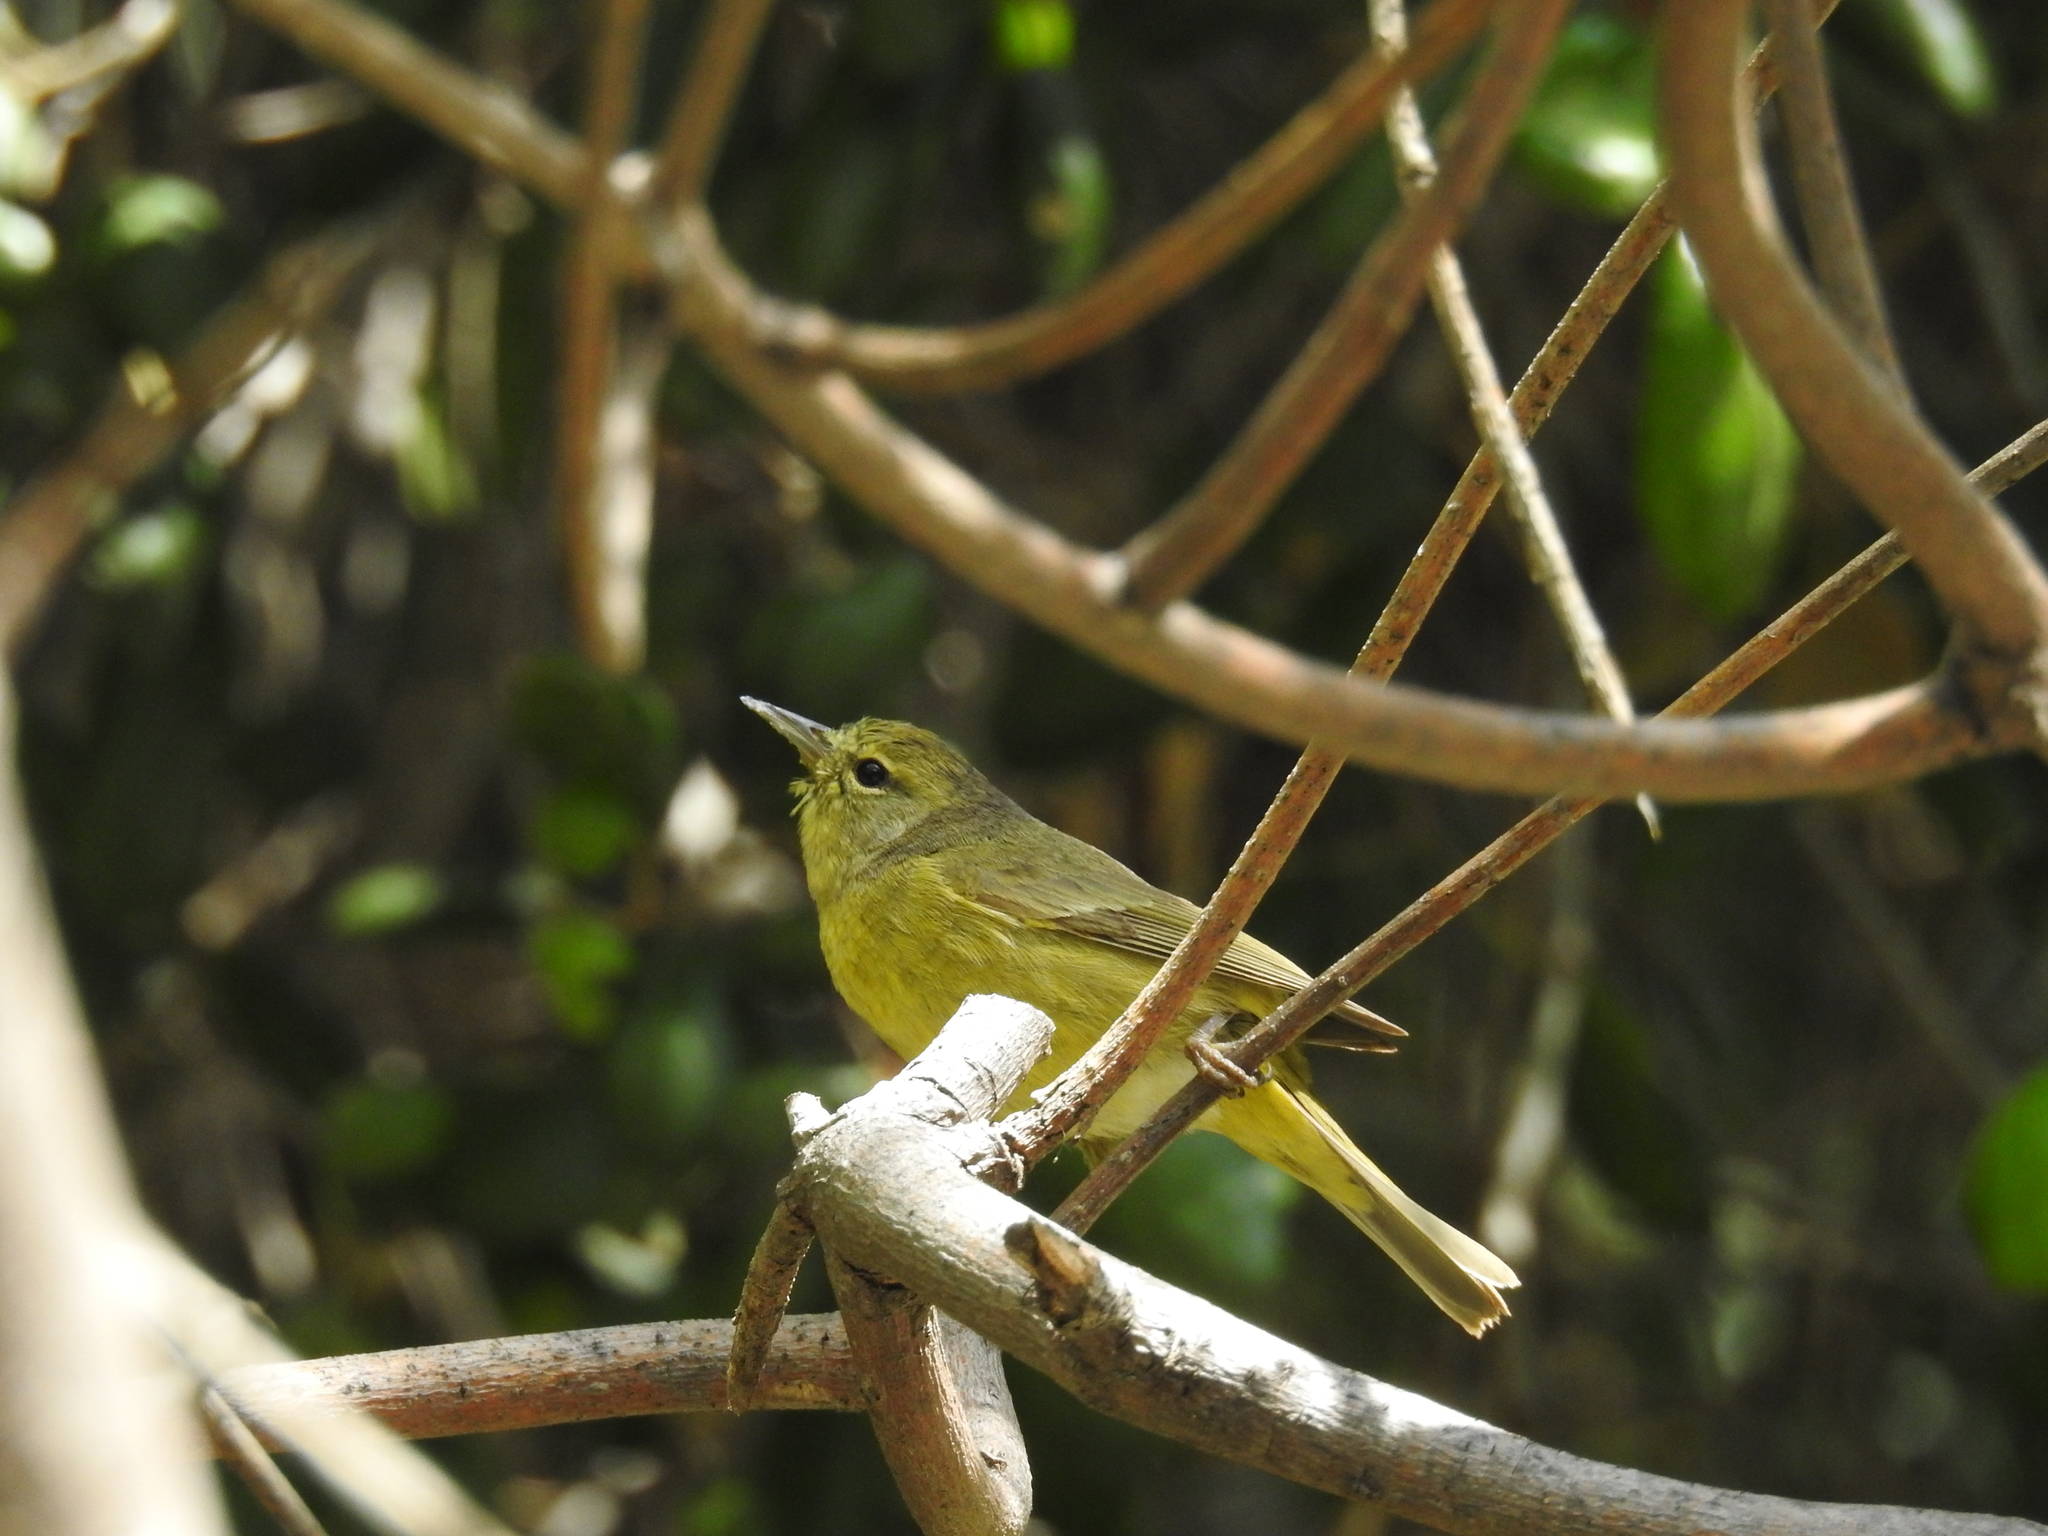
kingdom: Animalia
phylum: Chordata
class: Aves
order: Passeriformes
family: Parulidae
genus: Leiothlypis
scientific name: Leiothlypis celata
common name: Orange-crowned warbler
